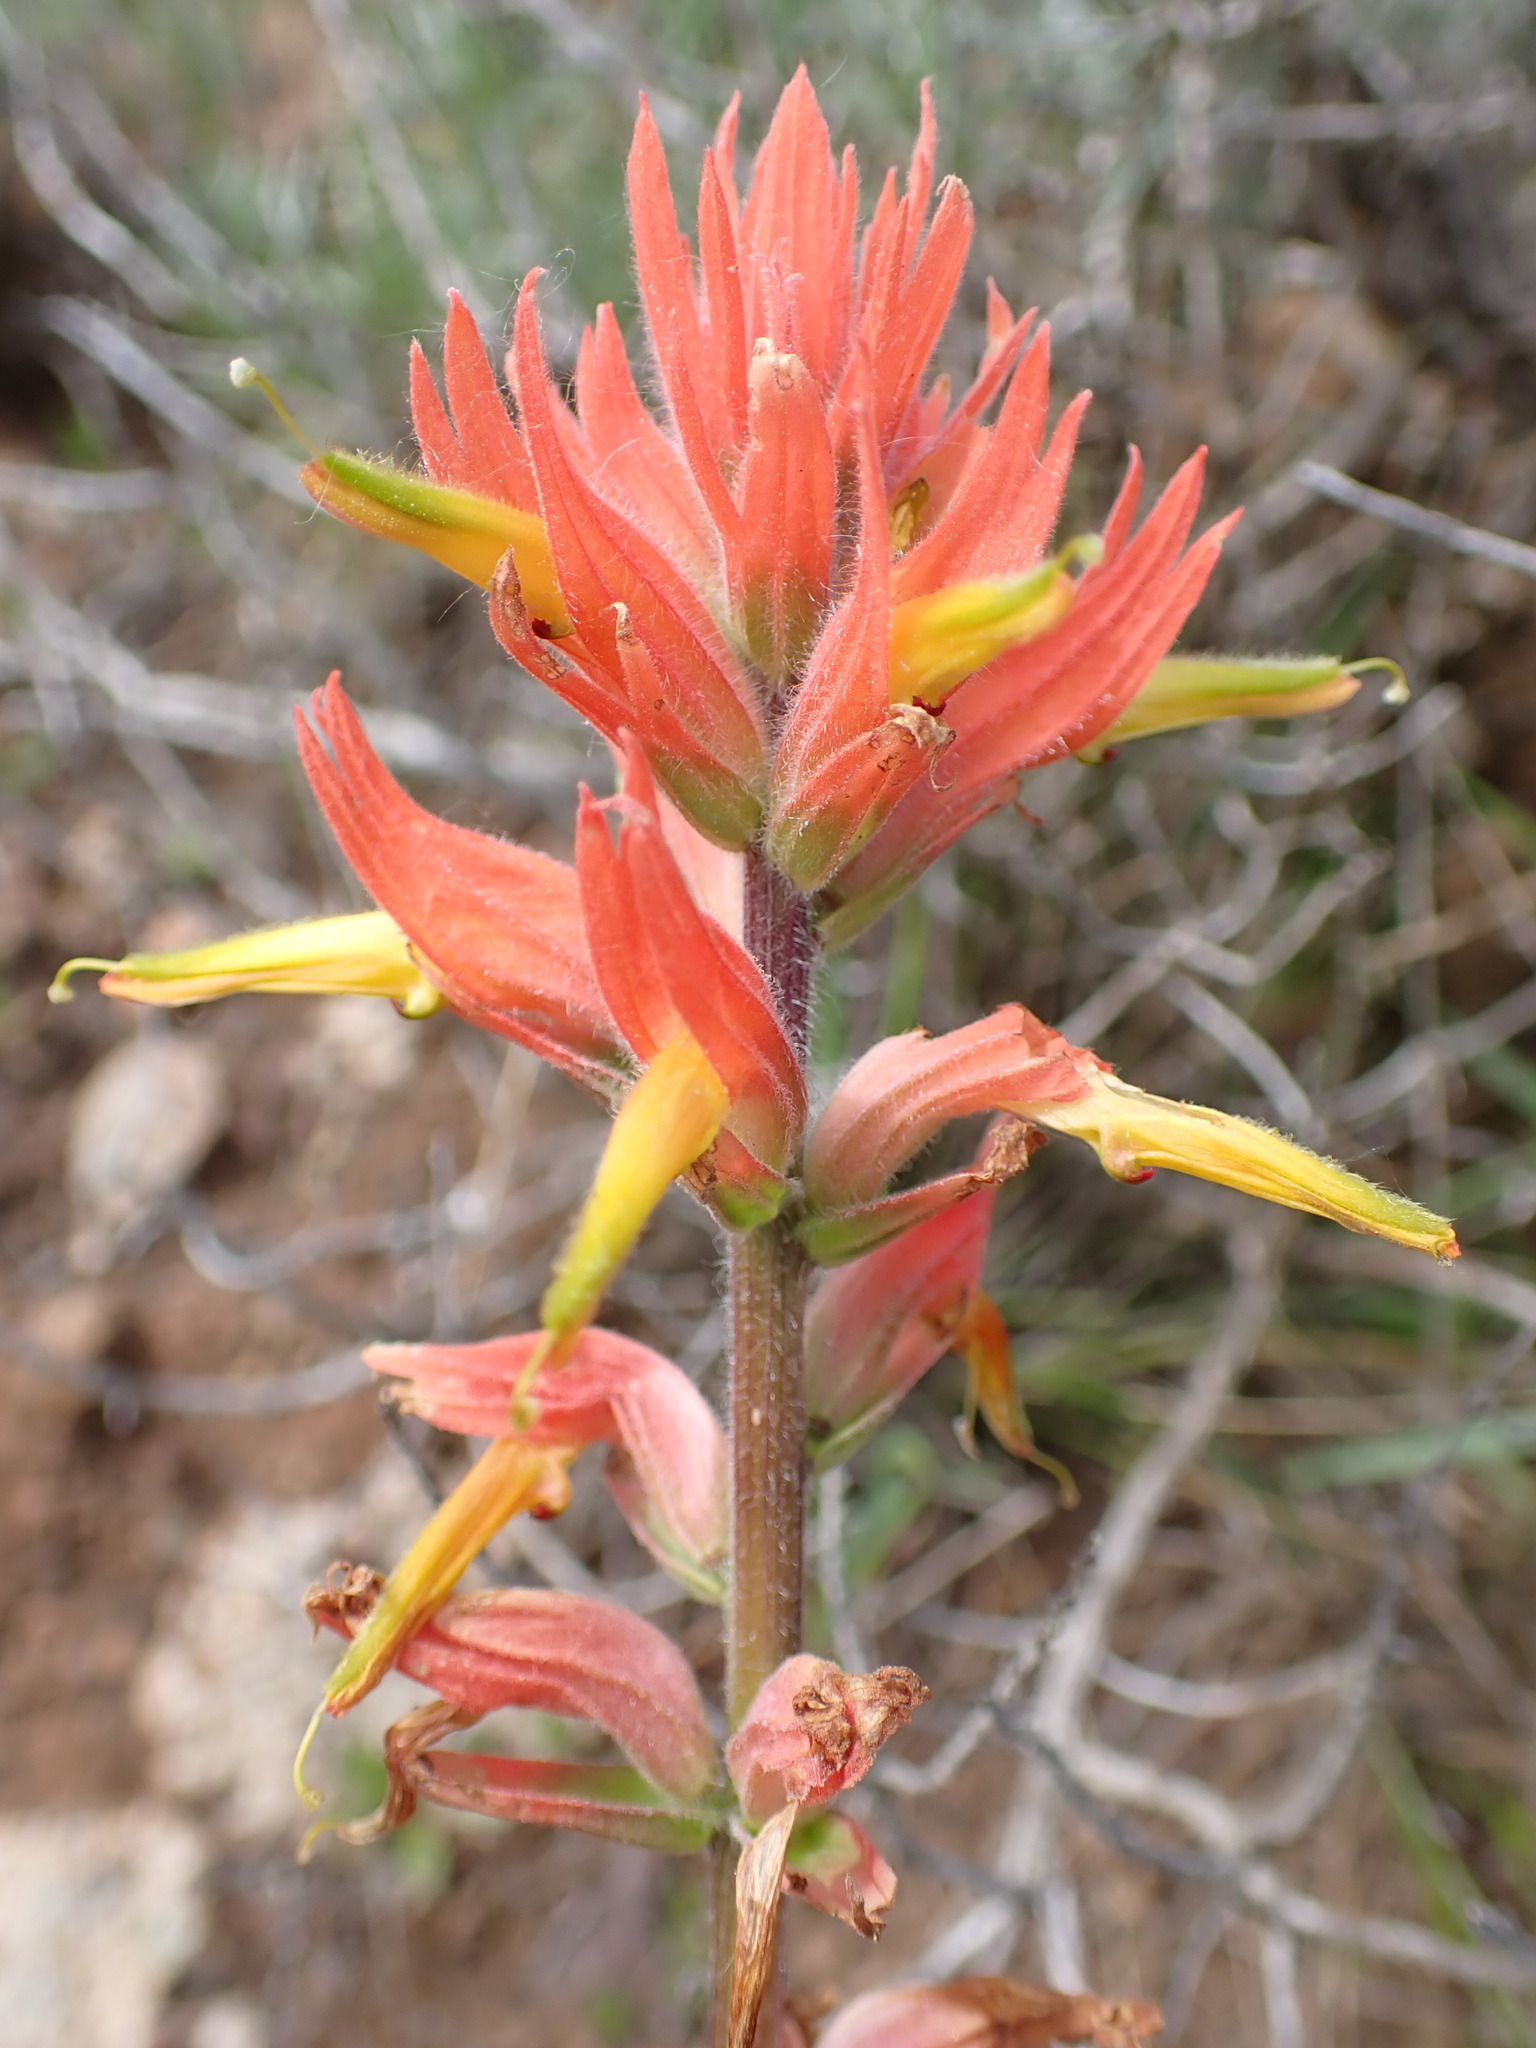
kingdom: Plantae
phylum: Tracheophyta
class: Magnoliopsida
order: Lamiales
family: Orobanchaceae
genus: Castilleja
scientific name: Castilleja subinclusa
